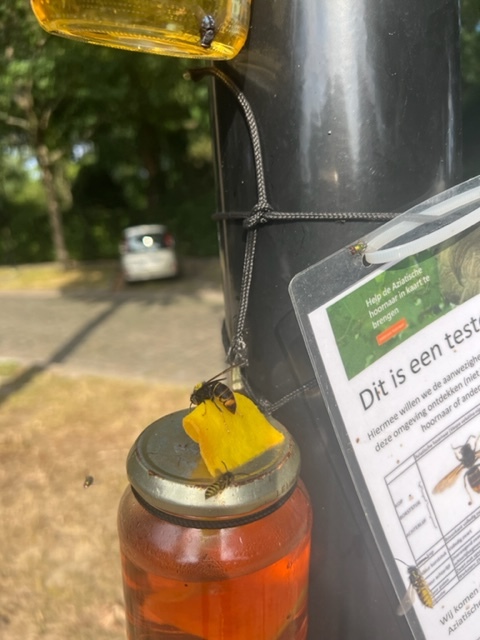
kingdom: Animalia
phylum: Arthropoda
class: Insecta
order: Hymenoptera
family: Vespidae
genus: Vespa
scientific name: Vespa velutina
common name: Asian hornet
